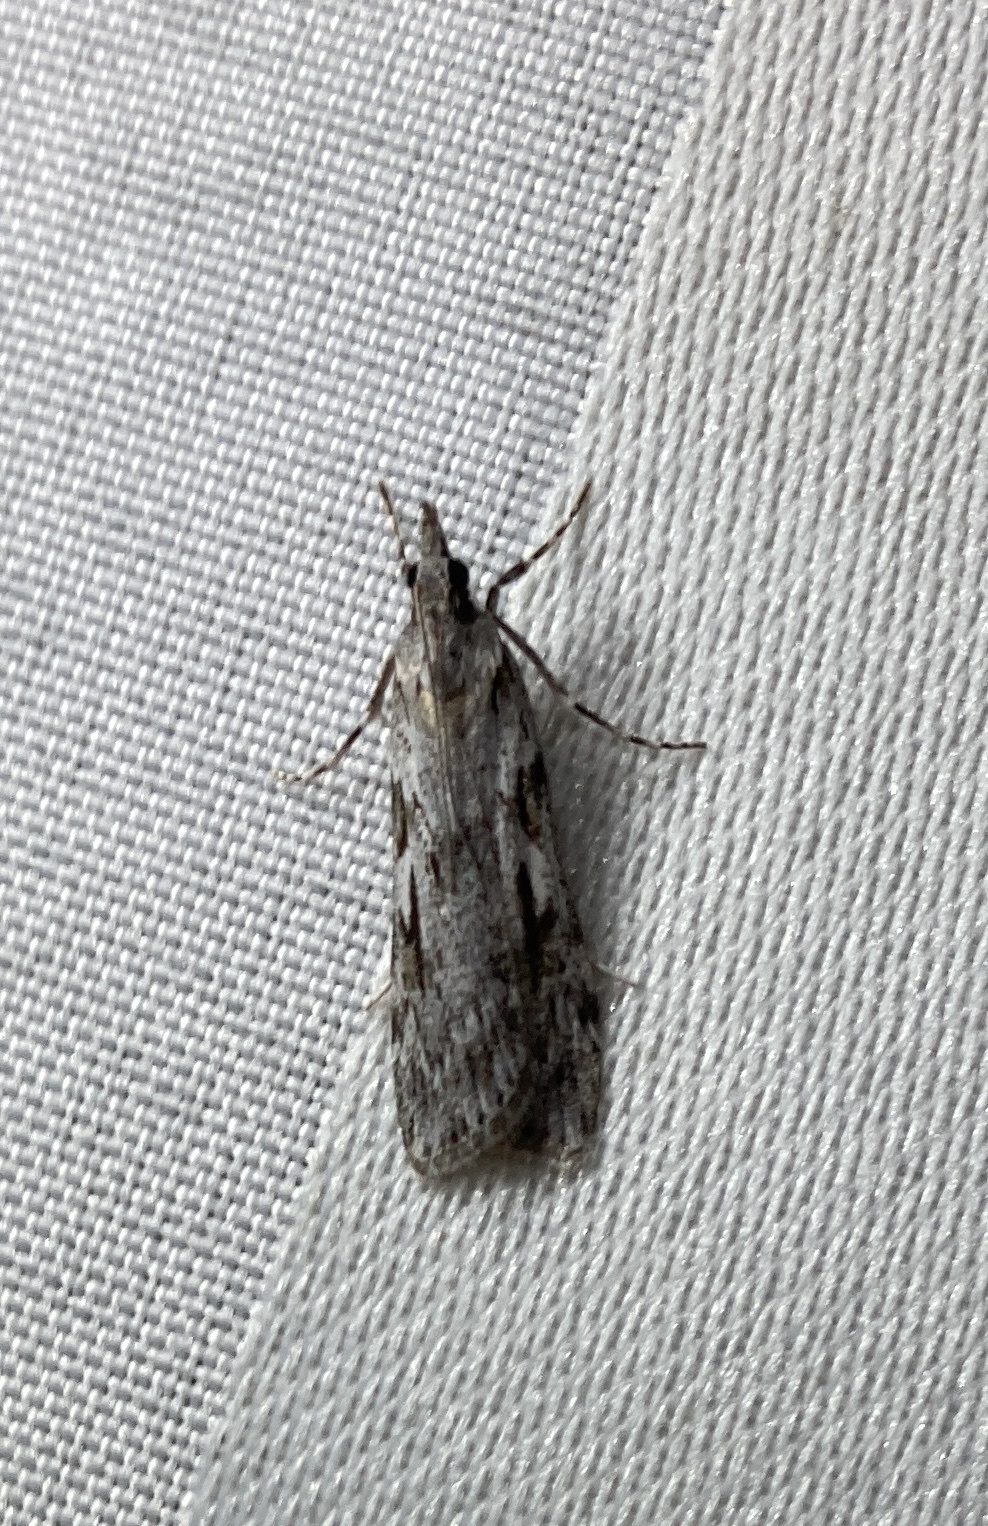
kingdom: Animalia
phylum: Arthropoda
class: Insecta
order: Lepidoptera
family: Crambidae
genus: Scoparia
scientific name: Scoparia halopis
